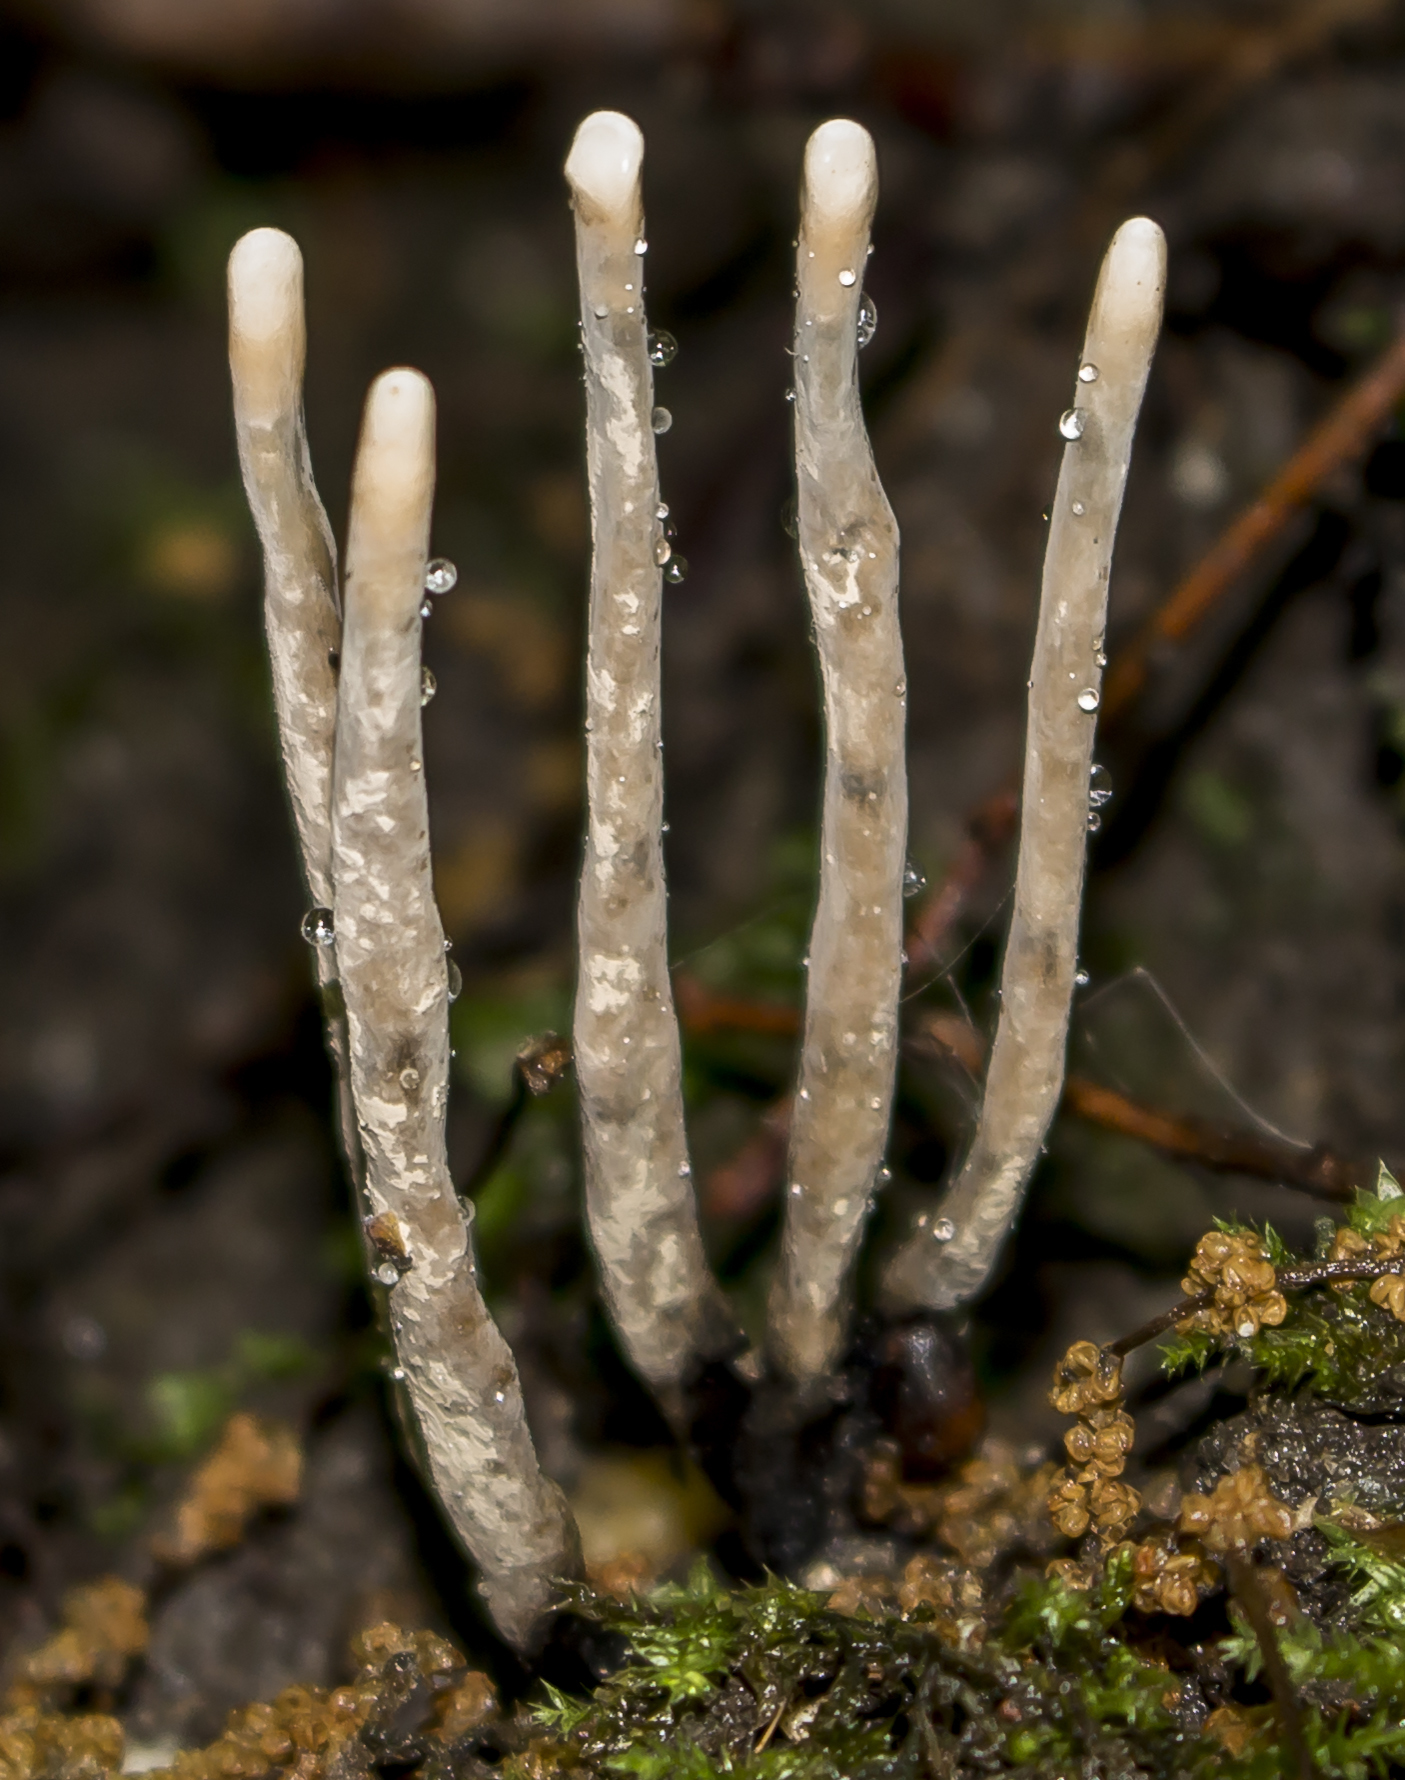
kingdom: Fungi
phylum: Ascomycota
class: Sordariomycetes
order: Xylariales
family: Xylariaceae
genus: Xylaria
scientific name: Xylaria
